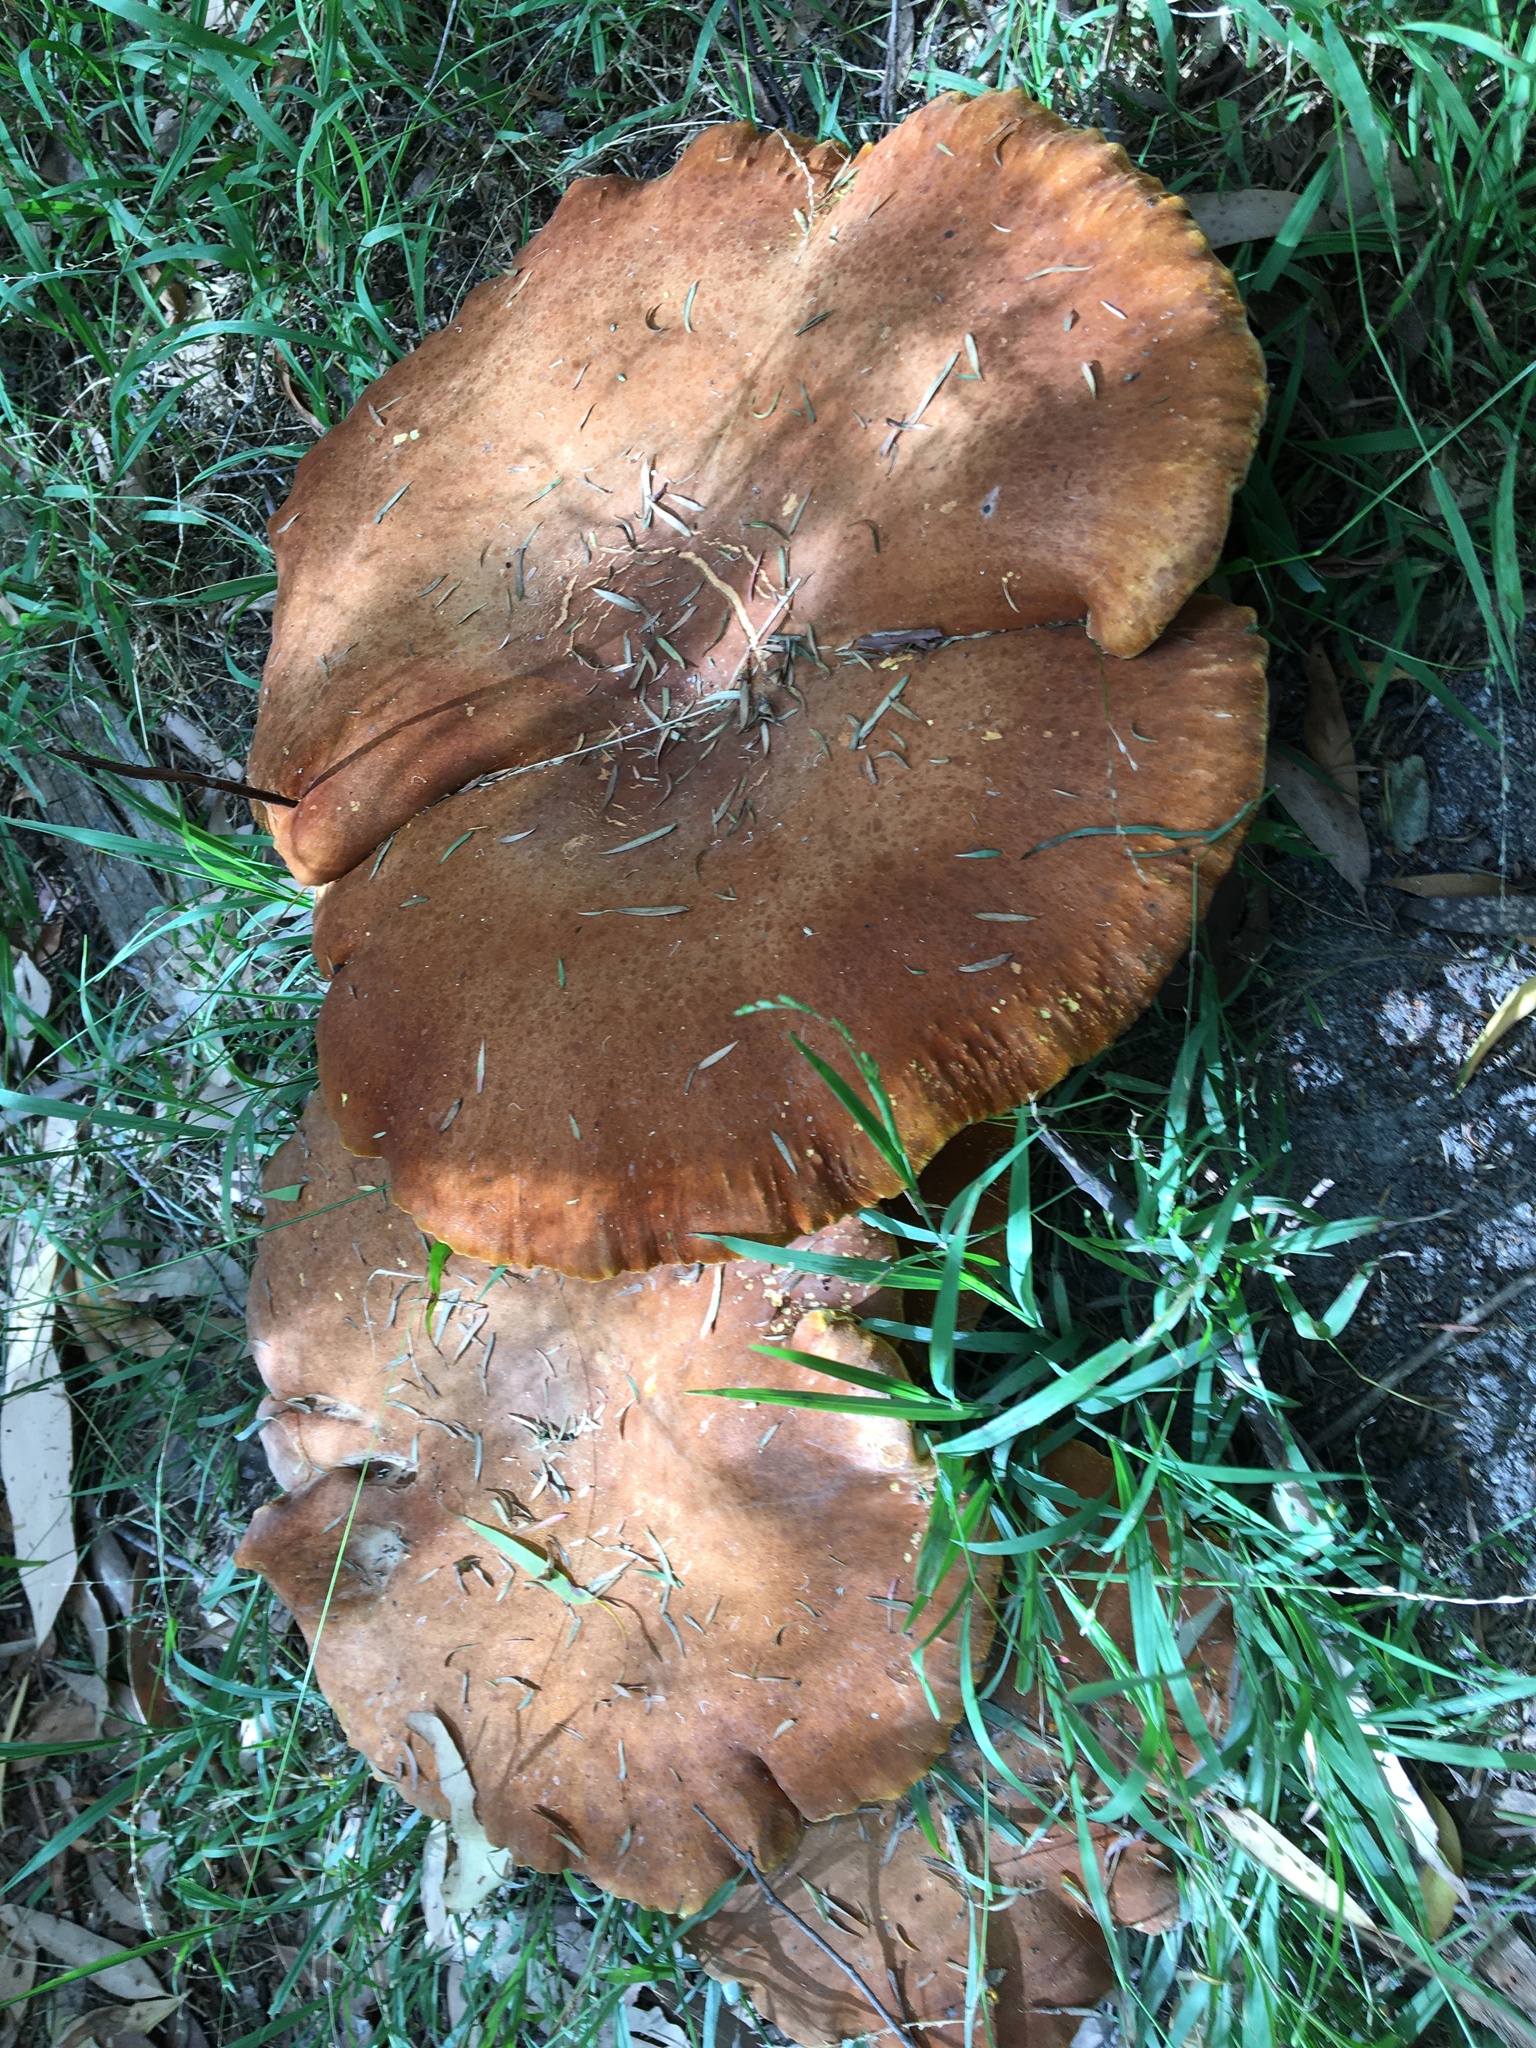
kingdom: Fungi
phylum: Basidiomycota
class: Agaricomycetes
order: Polyporales
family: Fomitopsidaceae
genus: Fomitopsis
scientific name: Fomitopsis
